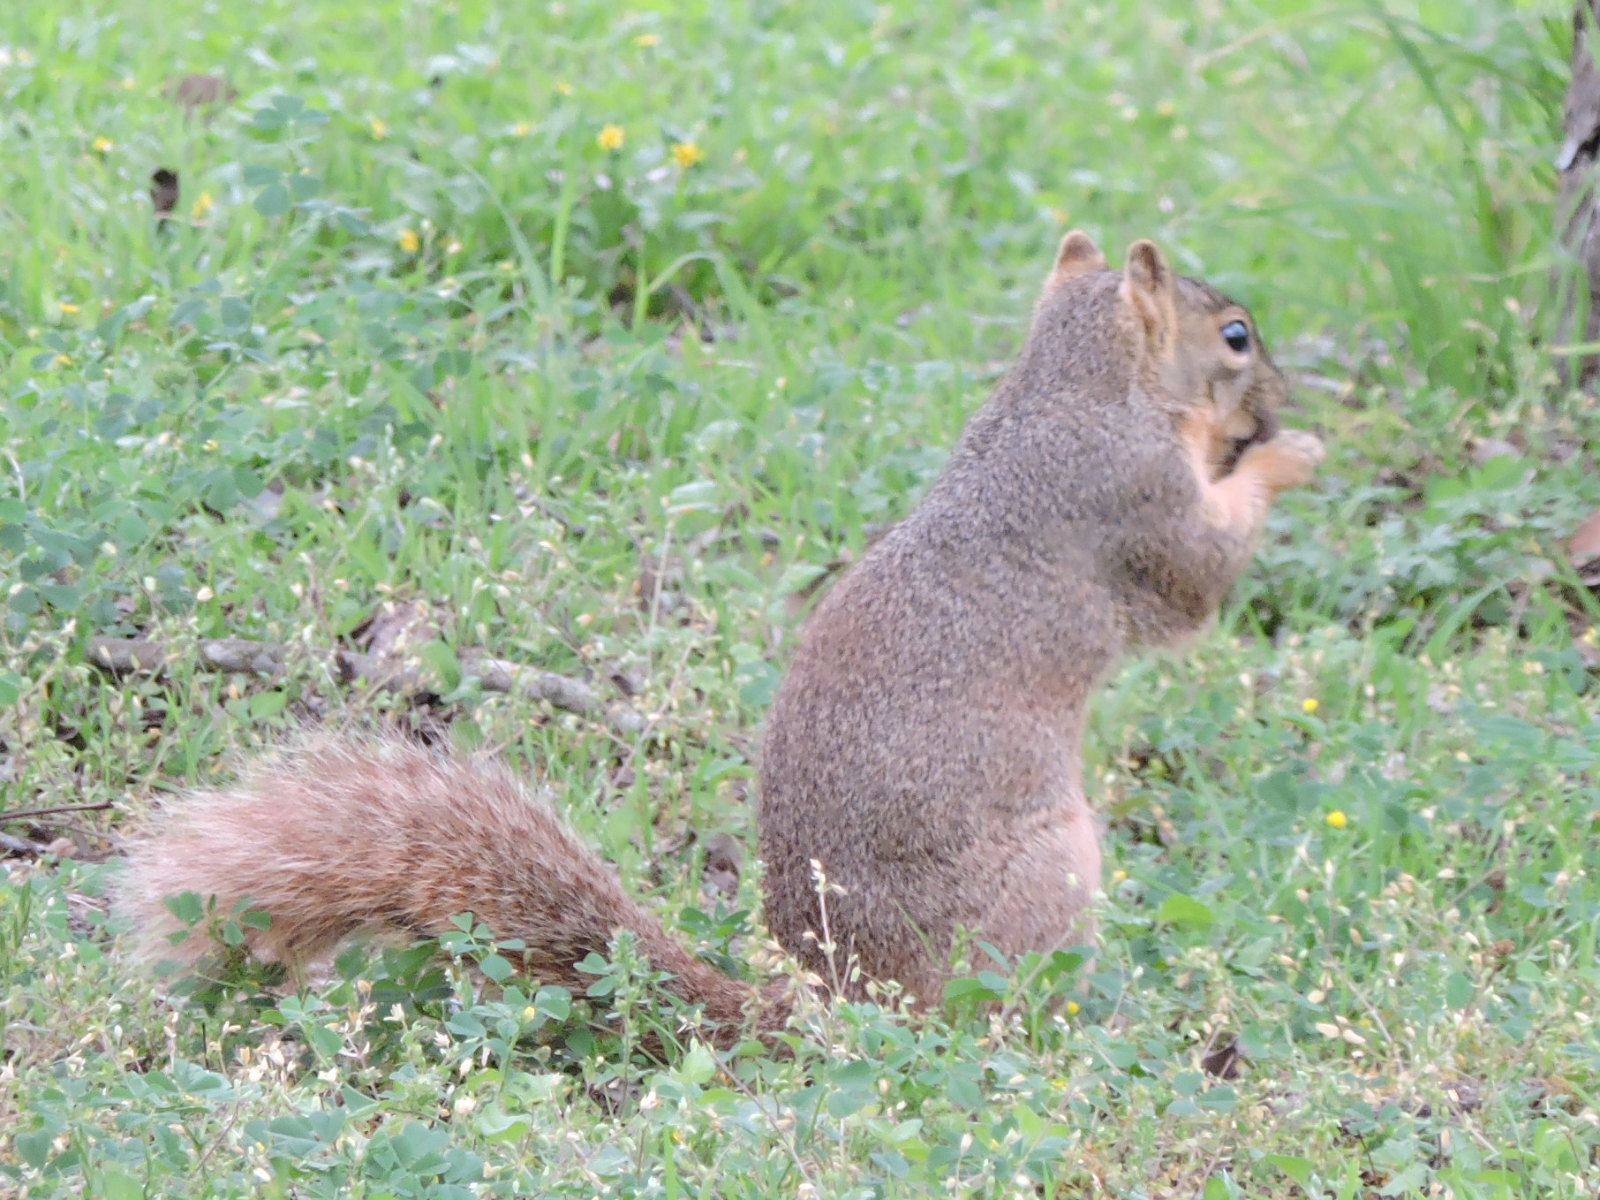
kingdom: Animalia
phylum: Chordata
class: Mammalia
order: Rodentia
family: Sciuridae
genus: Sciurus
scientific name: Sciurus niger
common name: Fox squirrel
